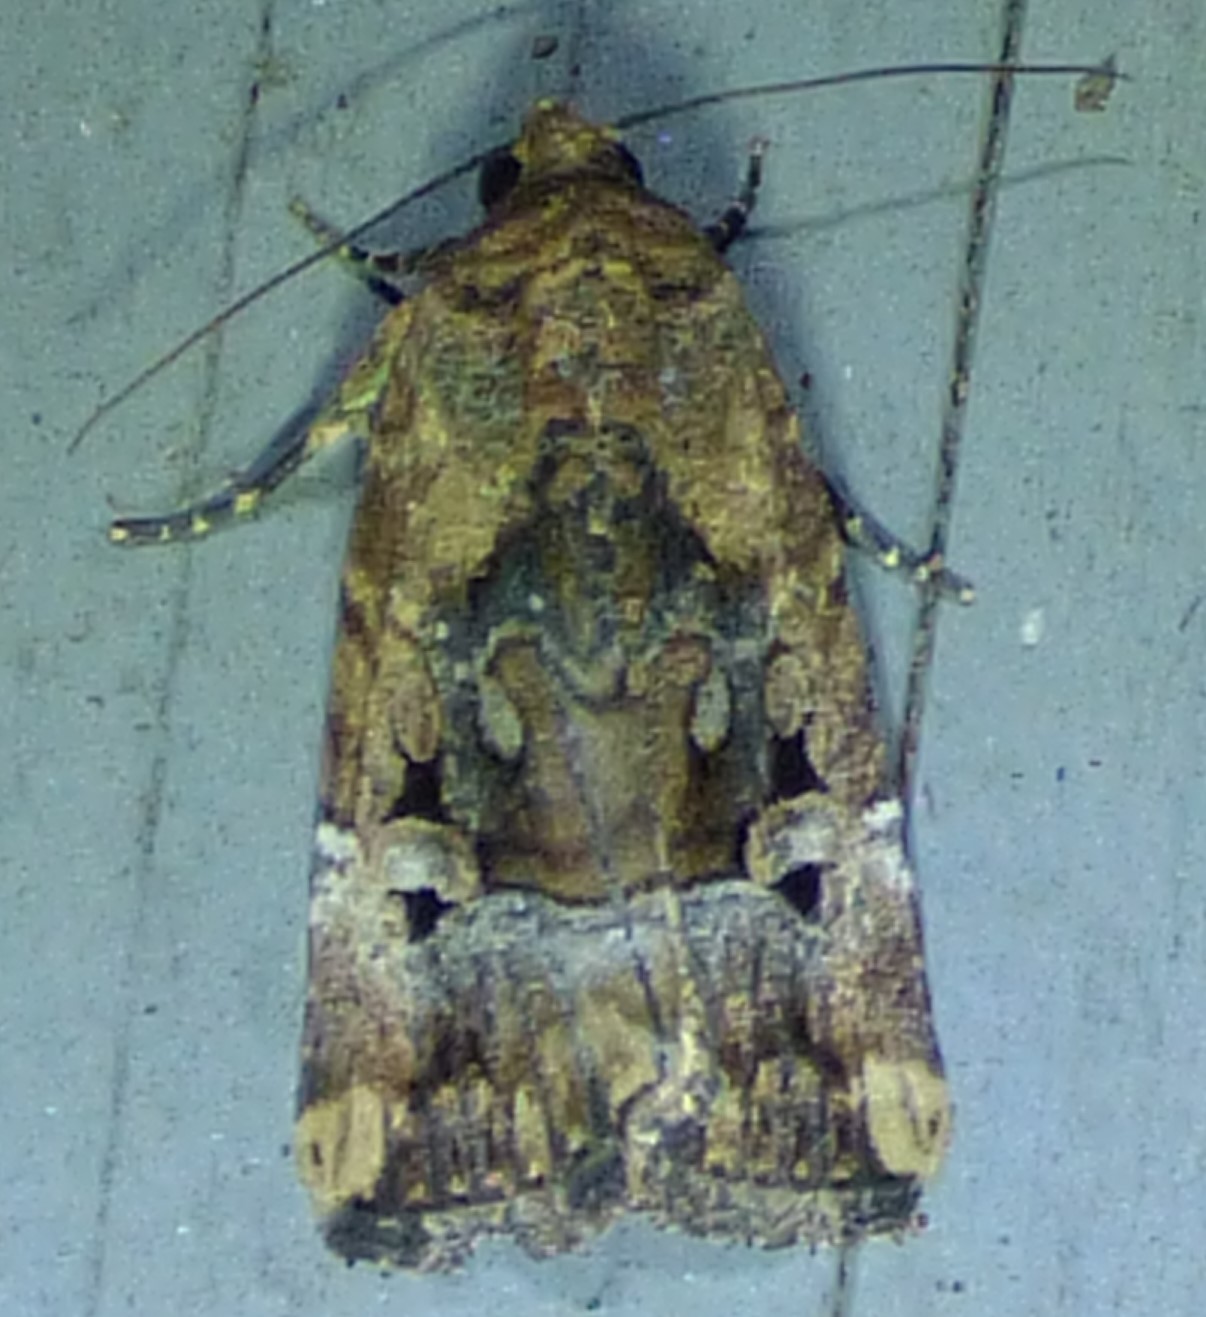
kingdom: Animalia
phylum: Arthropoda
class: Insecta
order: Lepidoptera
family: Noctuidae
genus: Elaphria
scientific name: Elaphria chalcedonia
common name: Chalcedony midget
